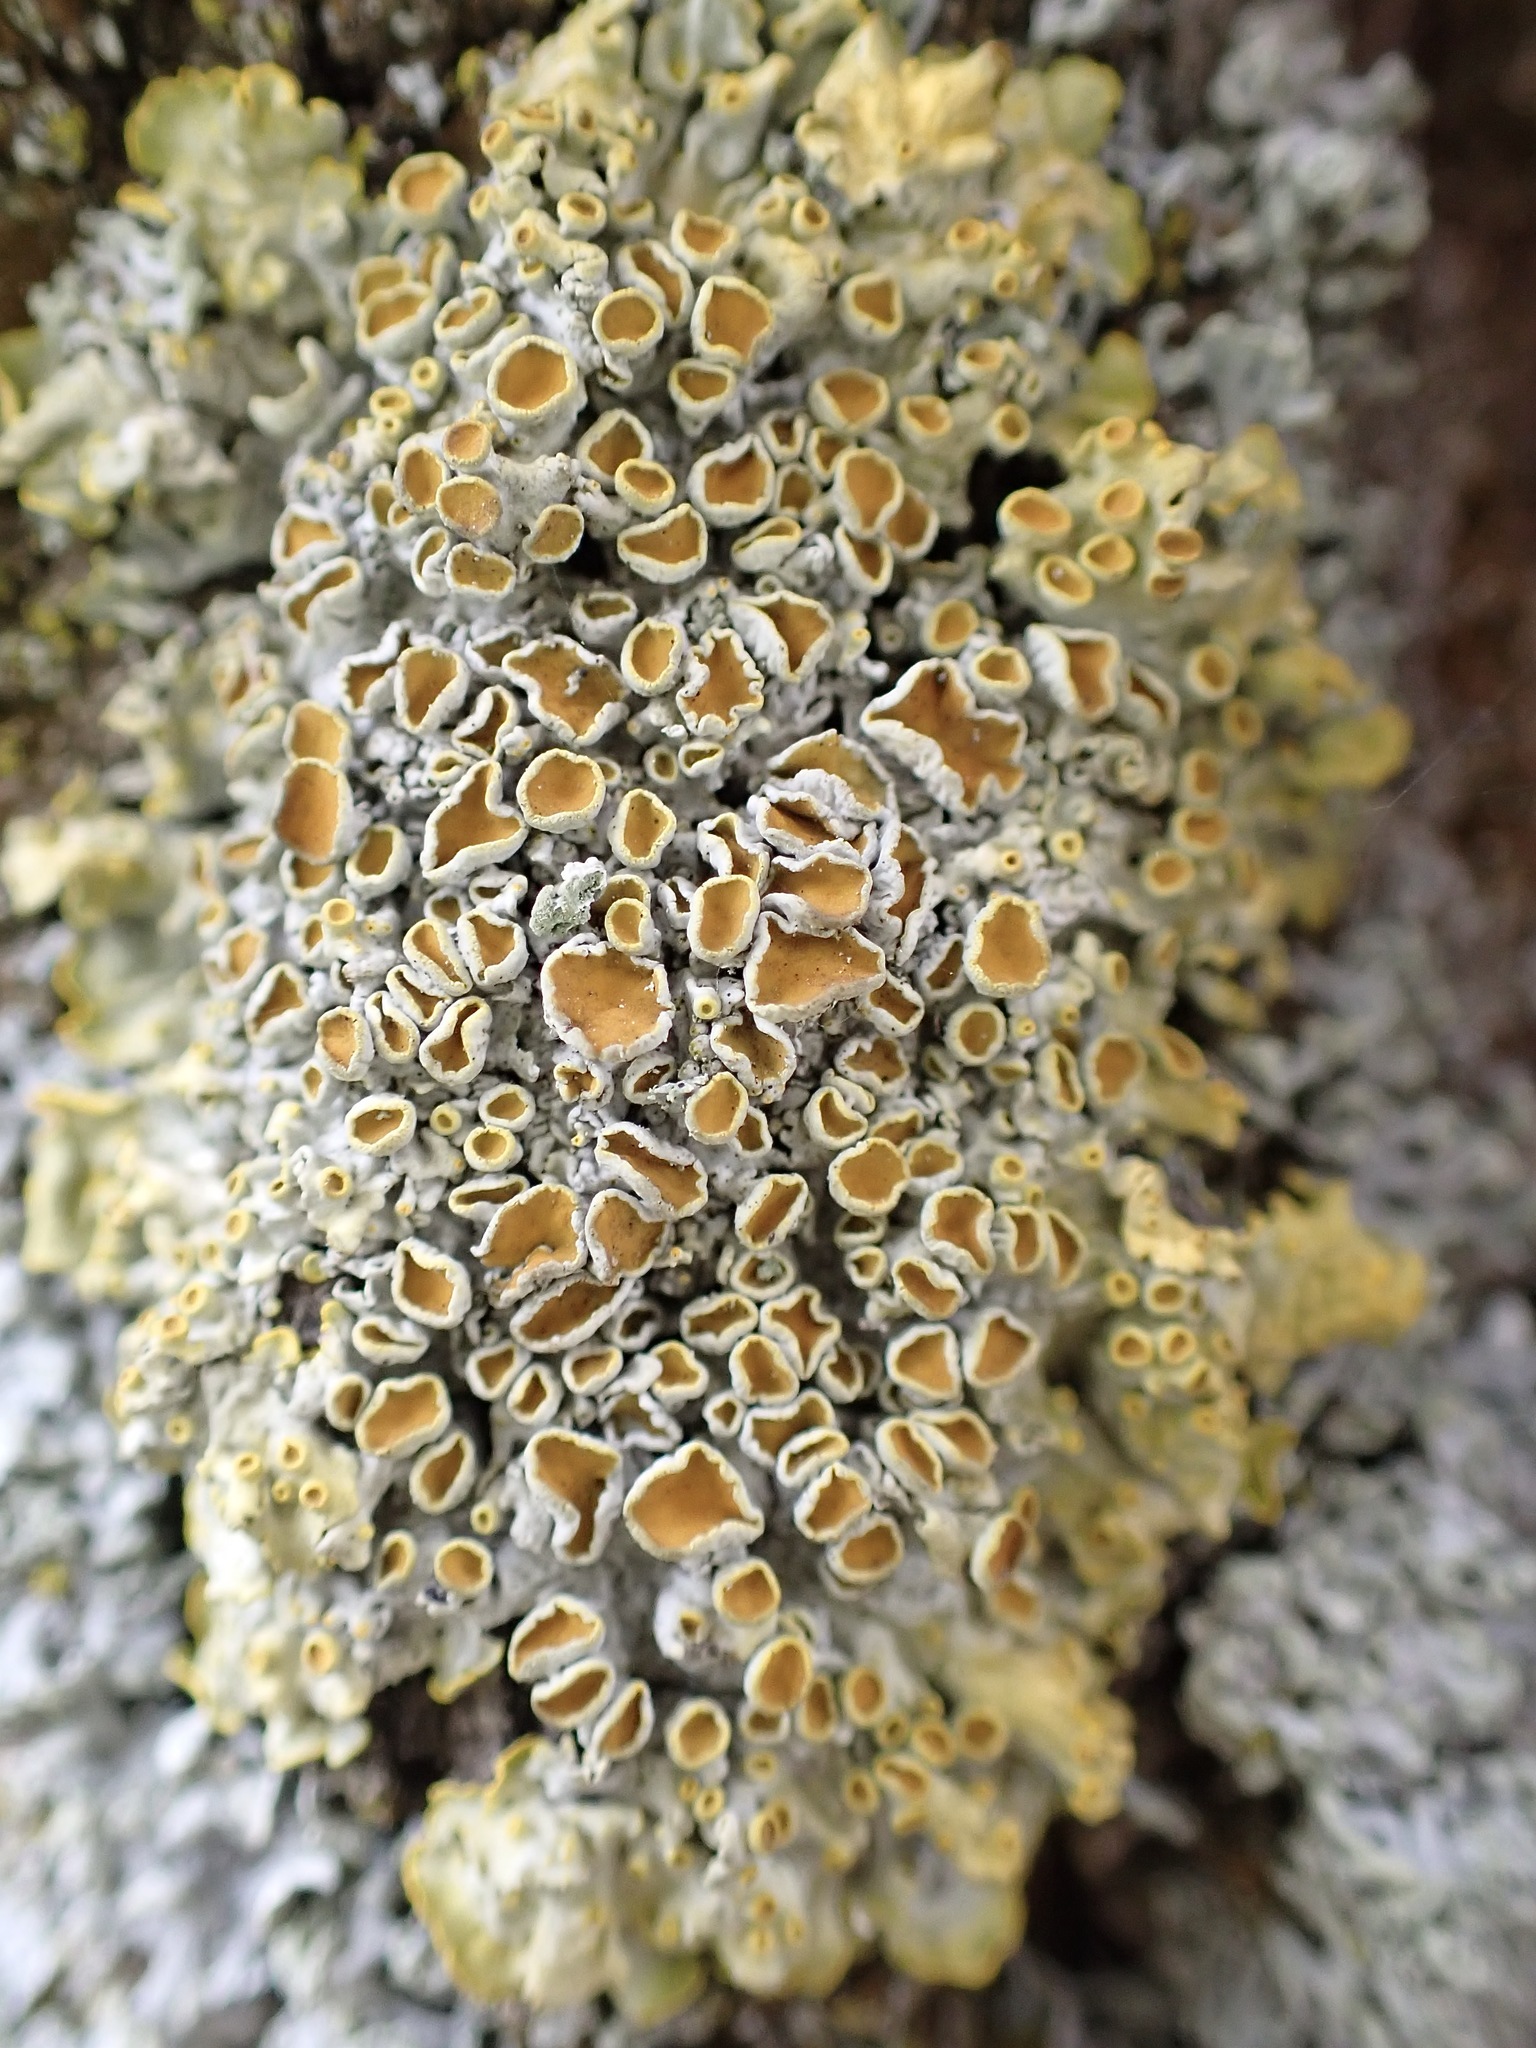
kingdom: Fungi
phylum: Ascomycota
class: Lecanoromycetes
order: Teloschistales
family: Teloschistaceae
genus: Xanthoria
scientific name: Xanthoria parietina
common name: Common orange lichen
